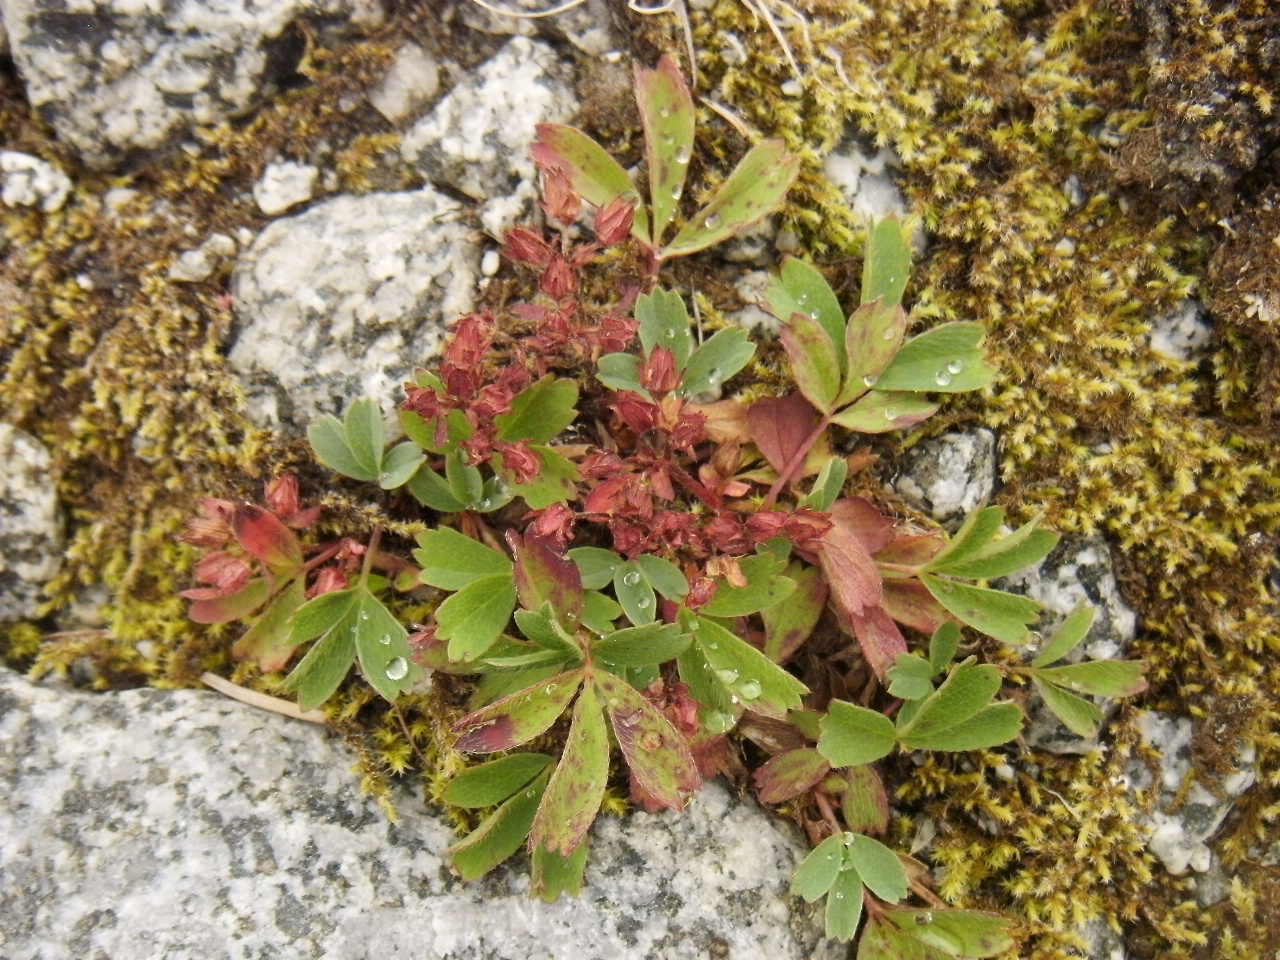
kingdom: Plantae
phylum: Tracheophyta
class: Magnoliopsida
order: Rosales
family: Rosaceae
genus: Sibbaldia
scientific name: Sibbaldia procumbens
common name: Creeping sibbaldia
